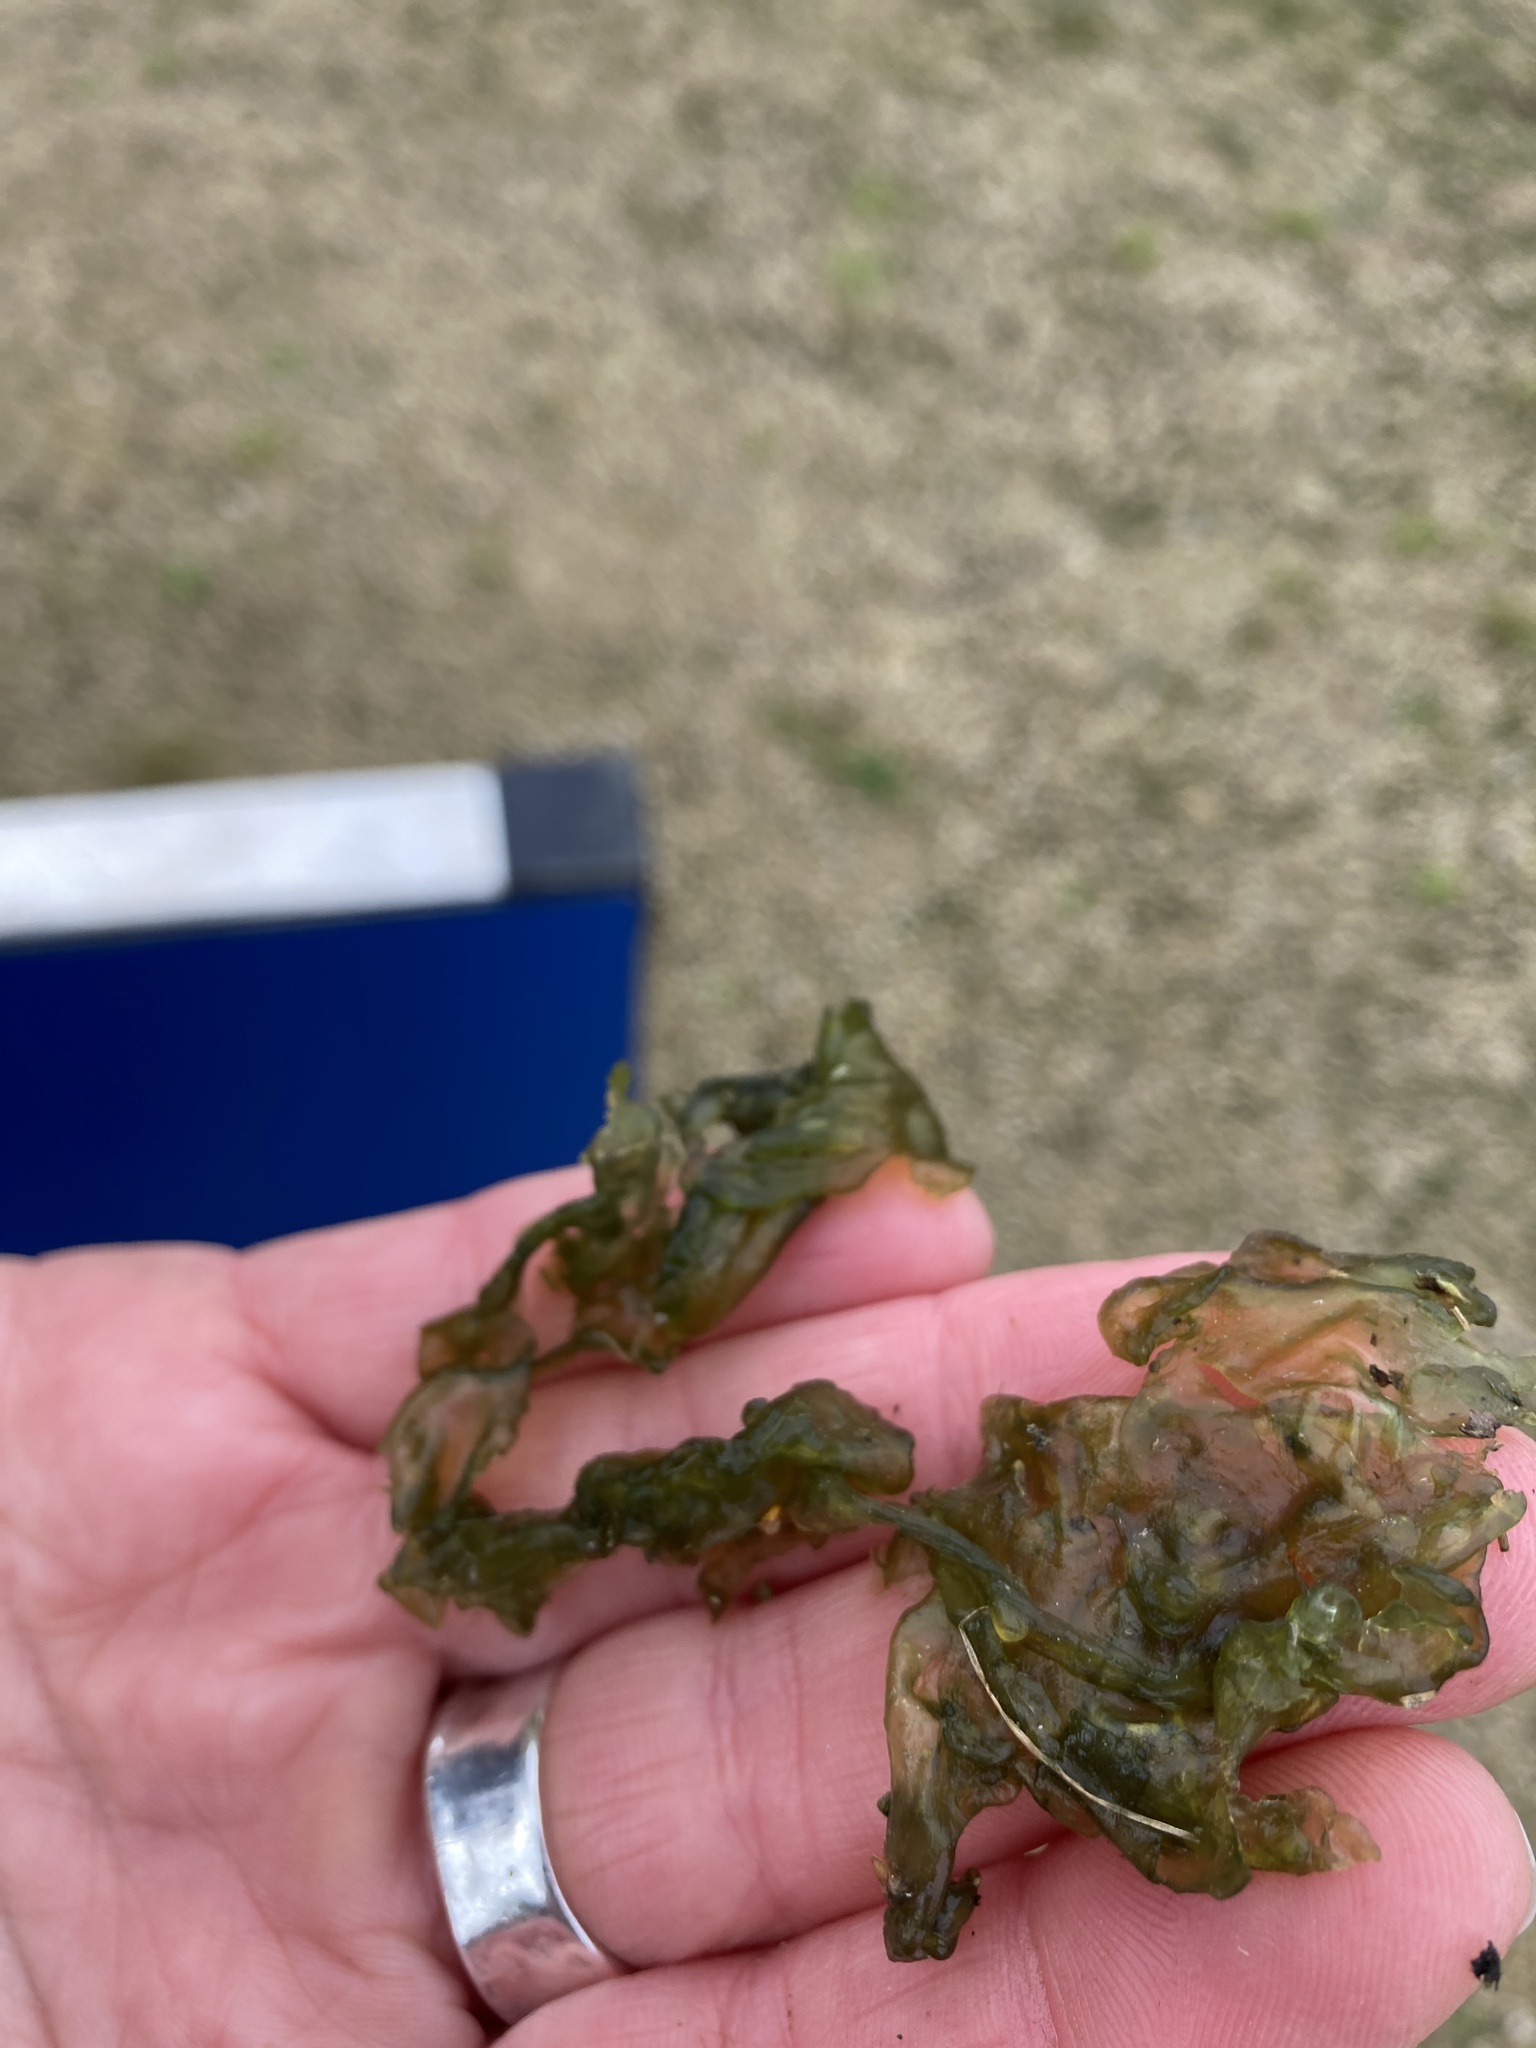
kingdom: Bacteria
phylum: Cyanobacteria
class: Cyanobacteriia
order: Cyanobacteriales
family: Nostocaceae
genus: Nostoc
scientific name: Nostoc commune
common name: Star jelly
